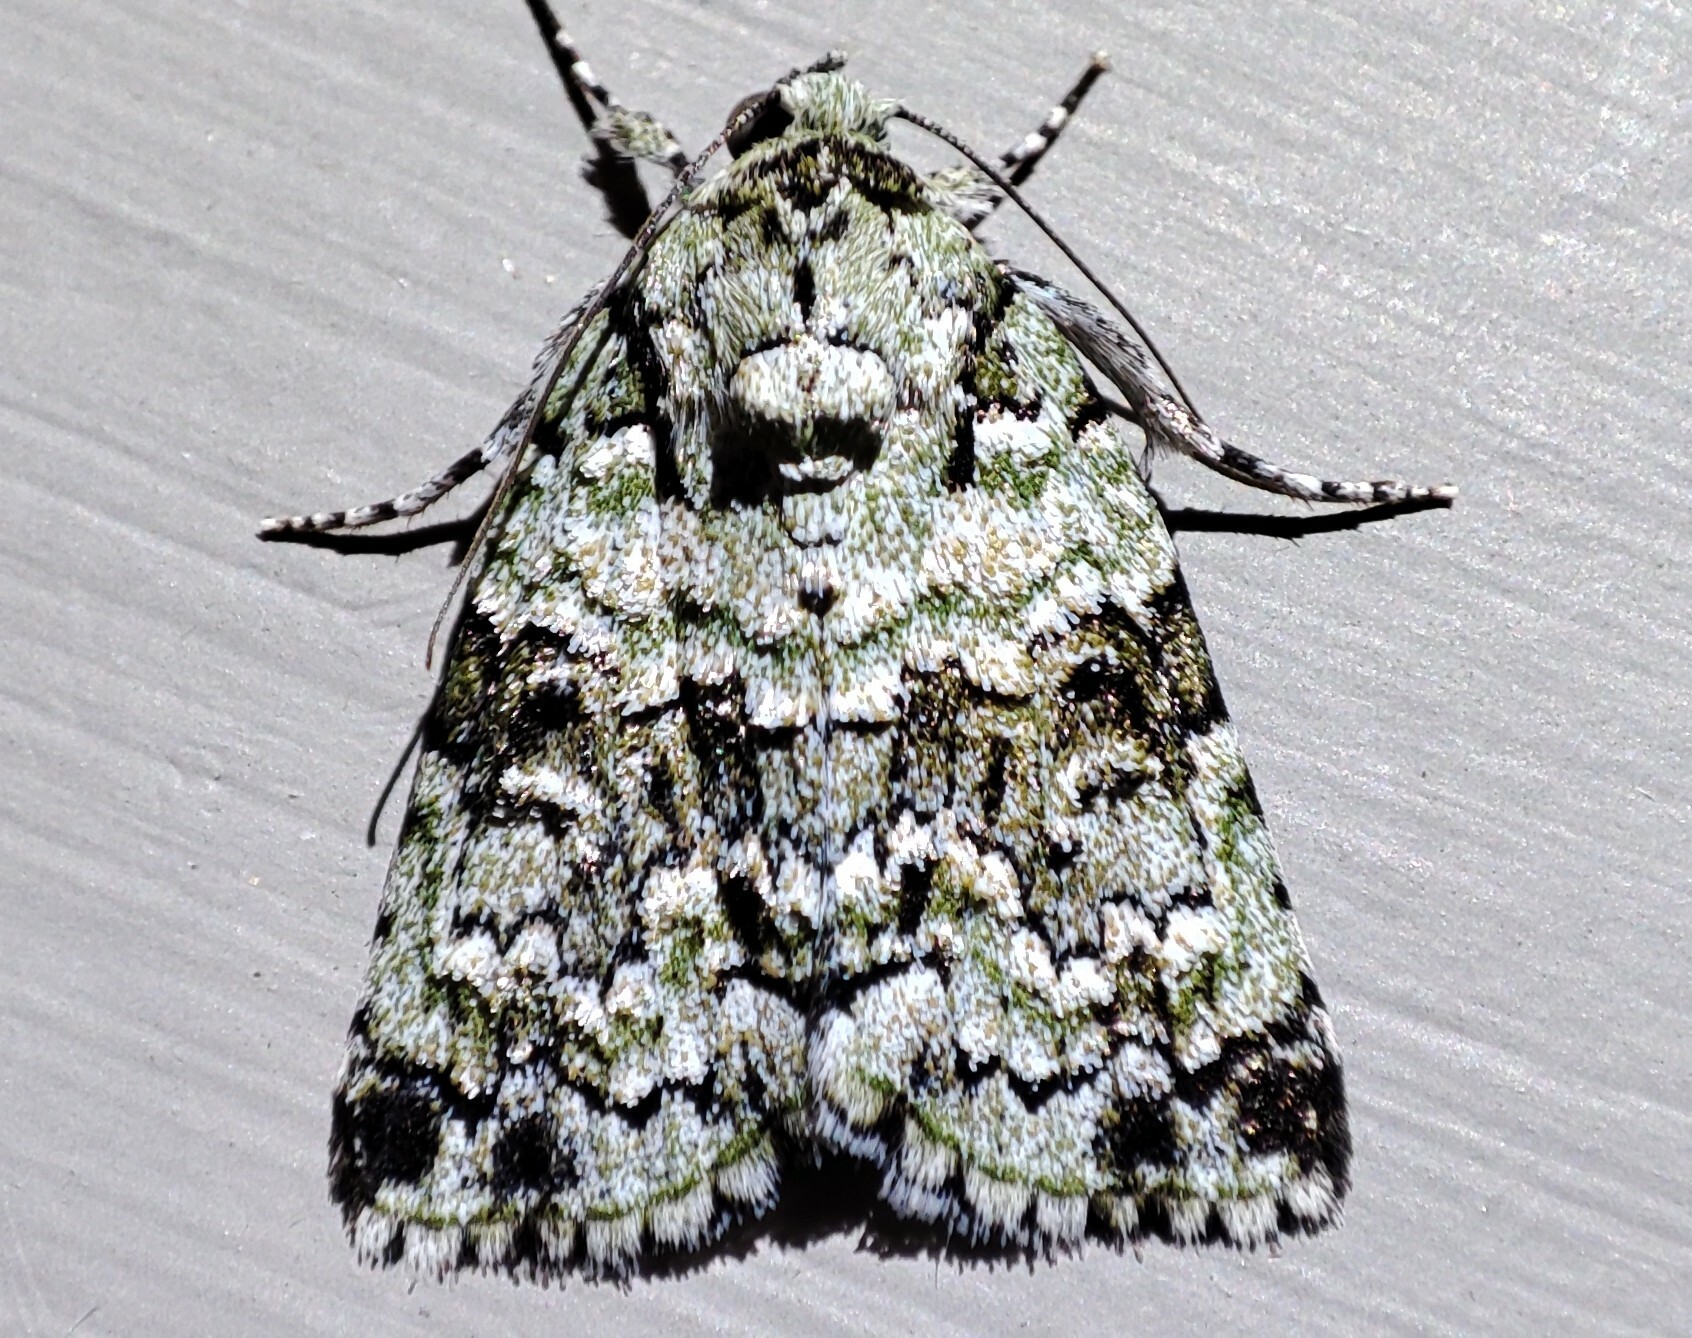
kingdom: Animalia
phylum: Arthropoda
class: Insecta
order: Lepidoptera
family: Nolidae
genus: Blenina
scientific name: Blenina squamifera
